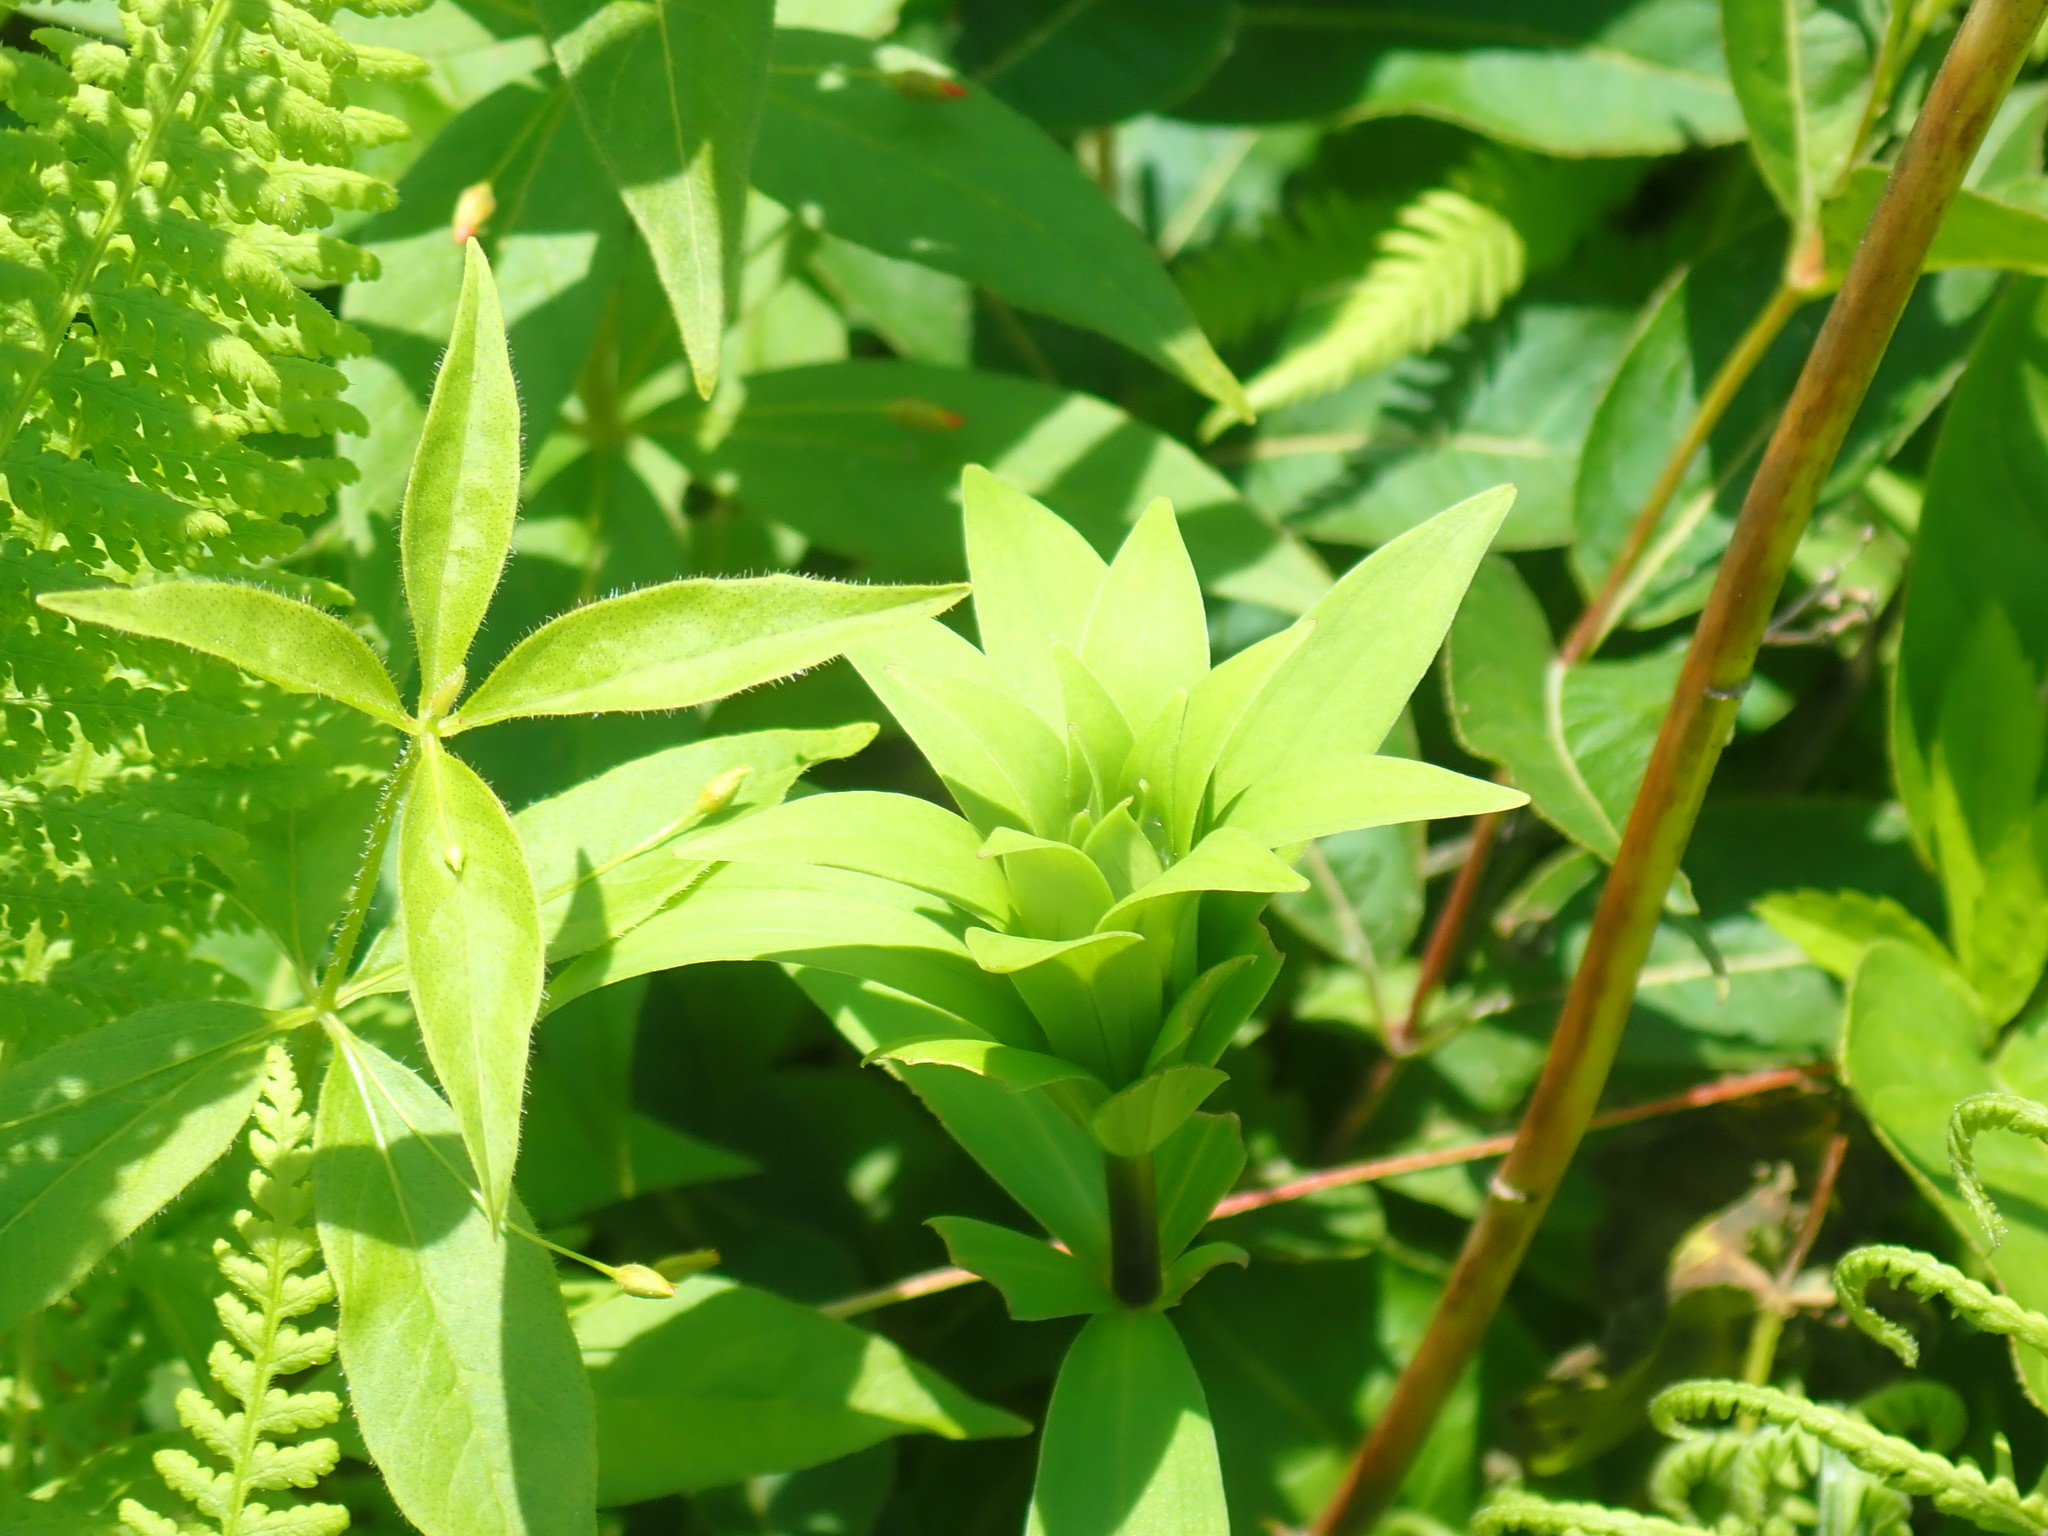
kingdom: Plantae
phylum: Tracheophyta
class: Liliopsida
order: Liliales
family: Liliaceae
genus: Lilium
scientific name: Lilium canadense
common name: Canada lily
